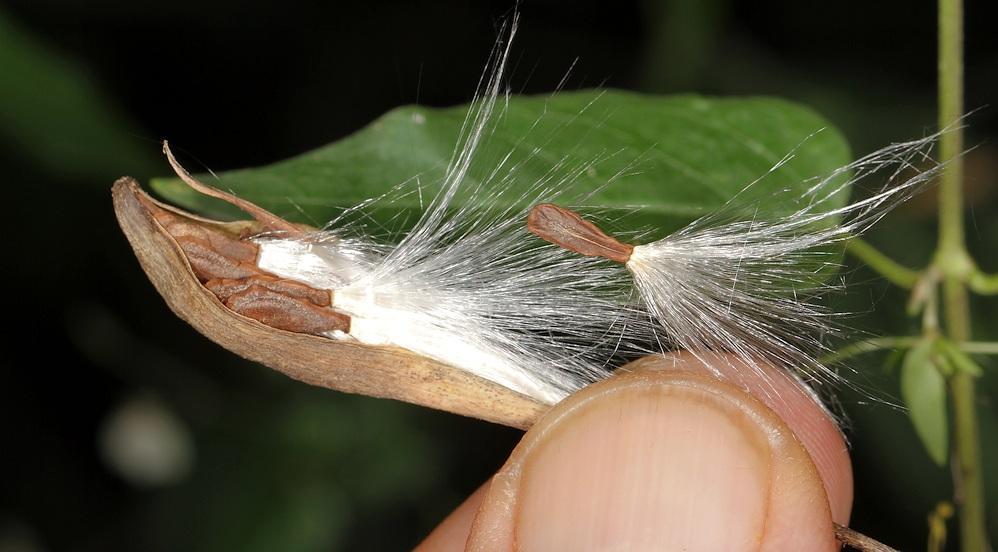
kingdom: Plantae
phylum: Tracheophyta
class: Magnoliopsida
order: Gentianales
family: Apocynaceae
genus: Vincetoxicum
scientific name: Vincetoxicum lycioides
